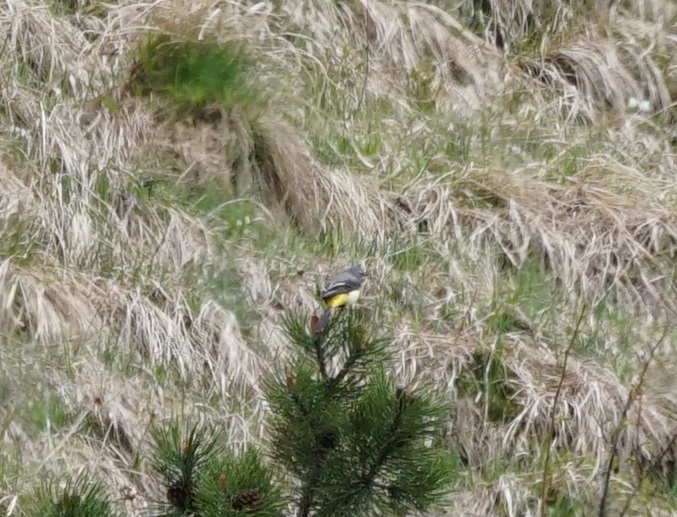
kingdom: Animalia
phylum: Chordata
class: Aves
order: Passeriformes
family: Motacillidae
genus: Motacilla
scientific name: Motacilla cinerea
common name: Grey wagtail
